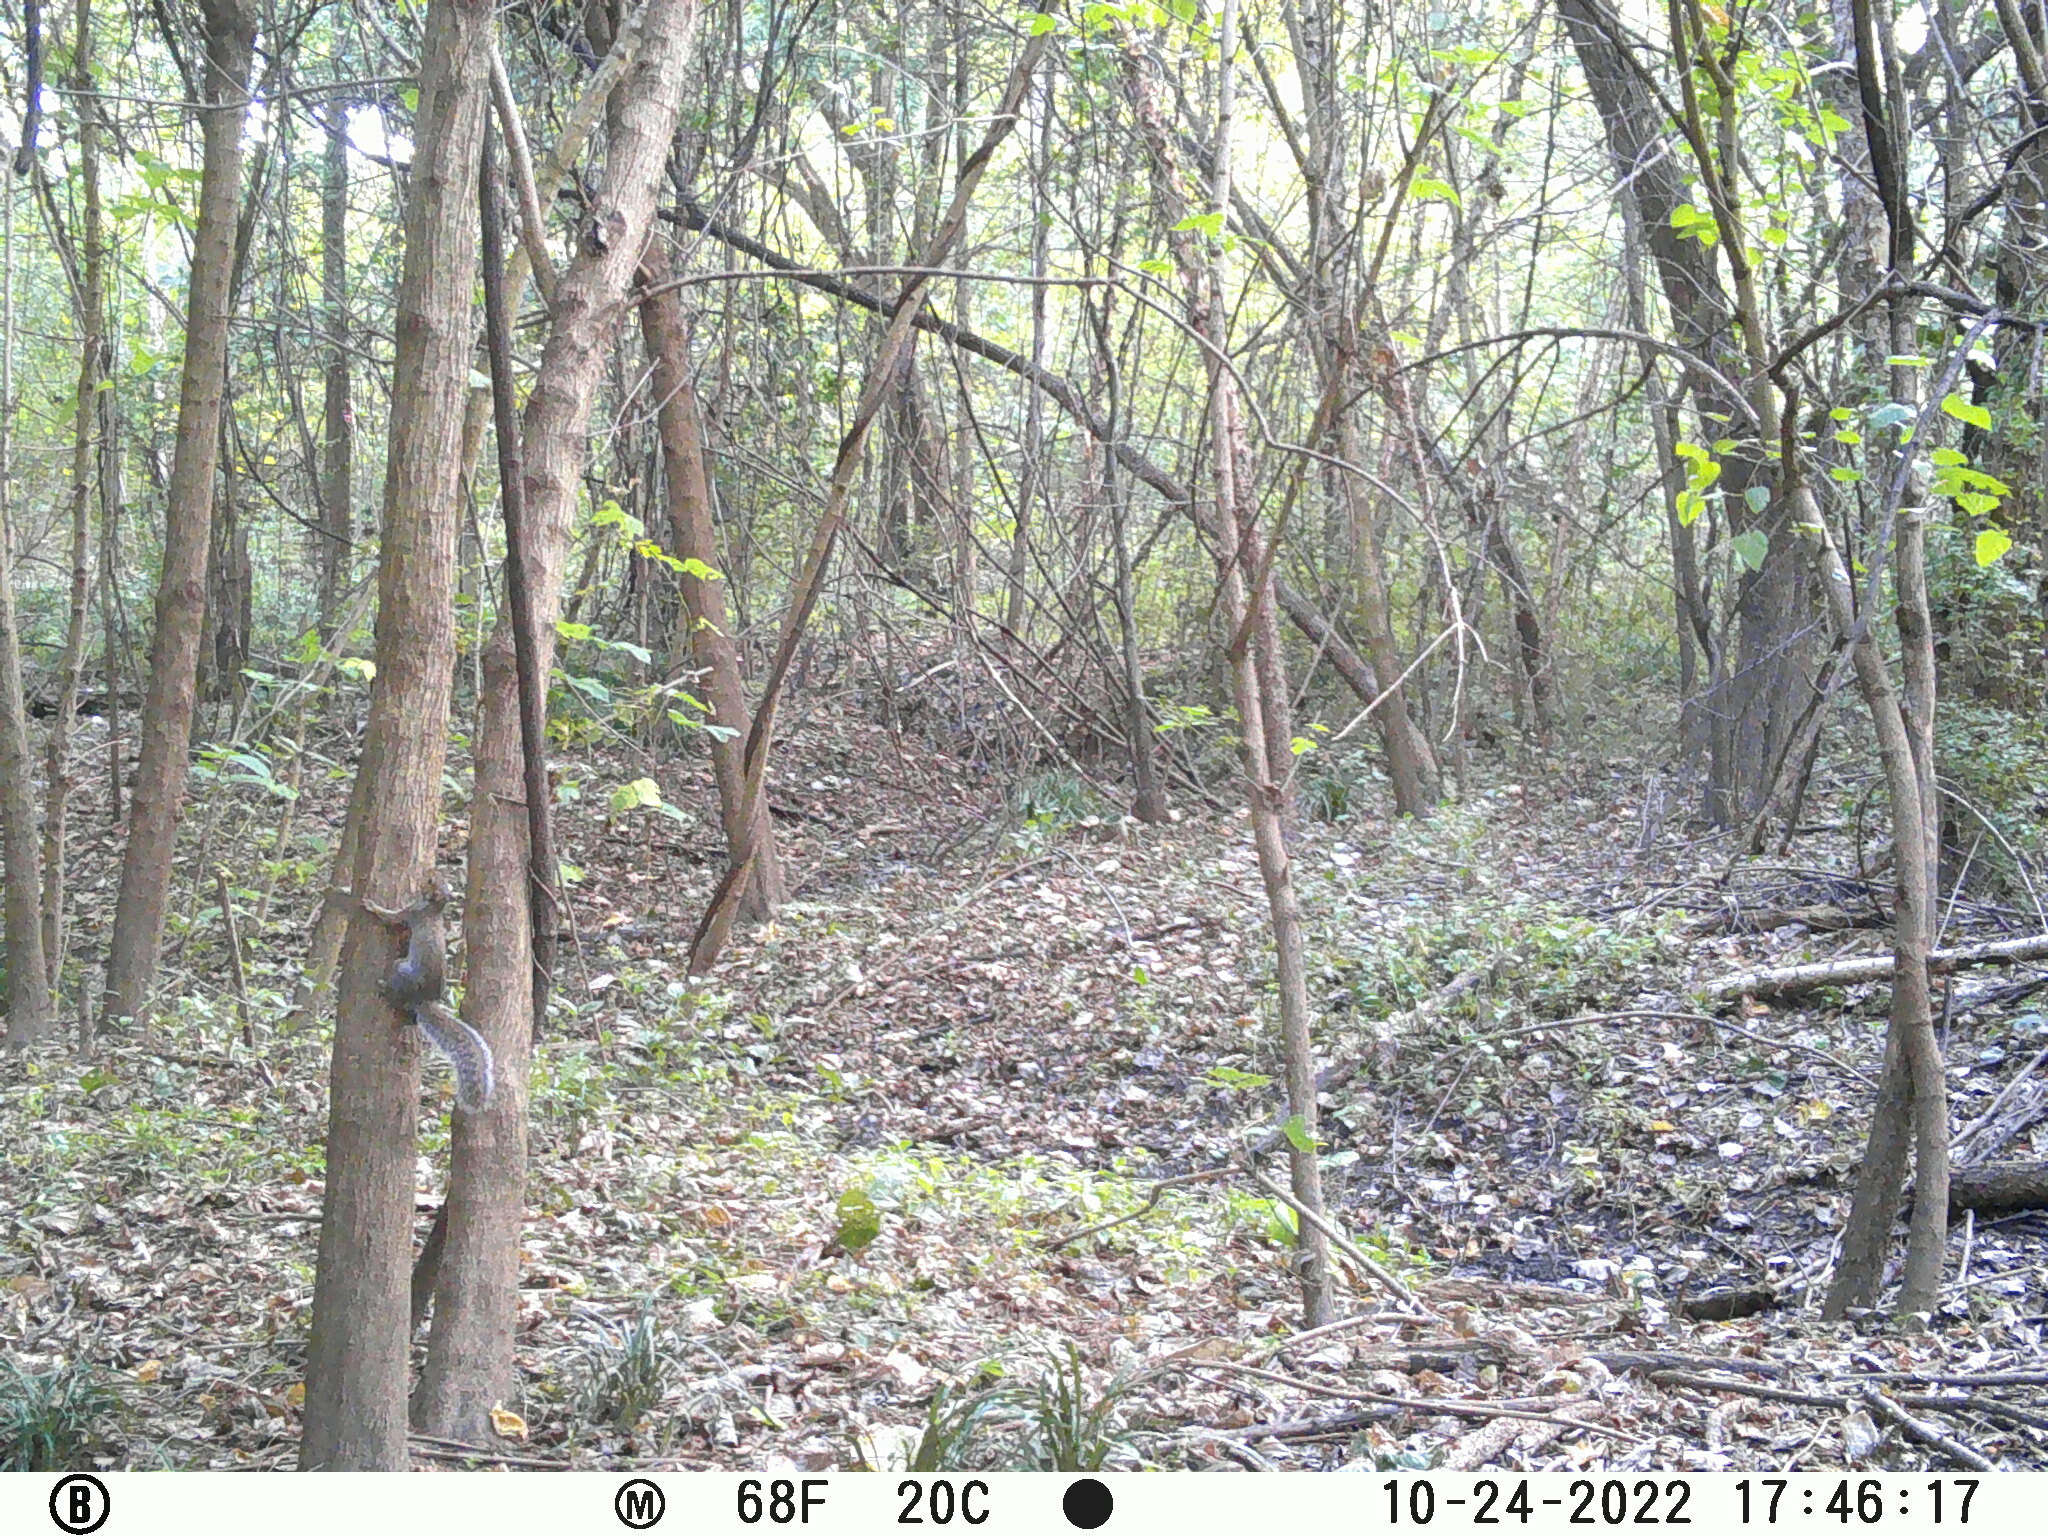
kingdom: Animalia
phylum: Chordata
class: Mammalia
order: Rodentia
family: Sciuridae
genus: Sciurus
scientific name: Sciurus carolinensis
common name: Eastern gray squirrel
